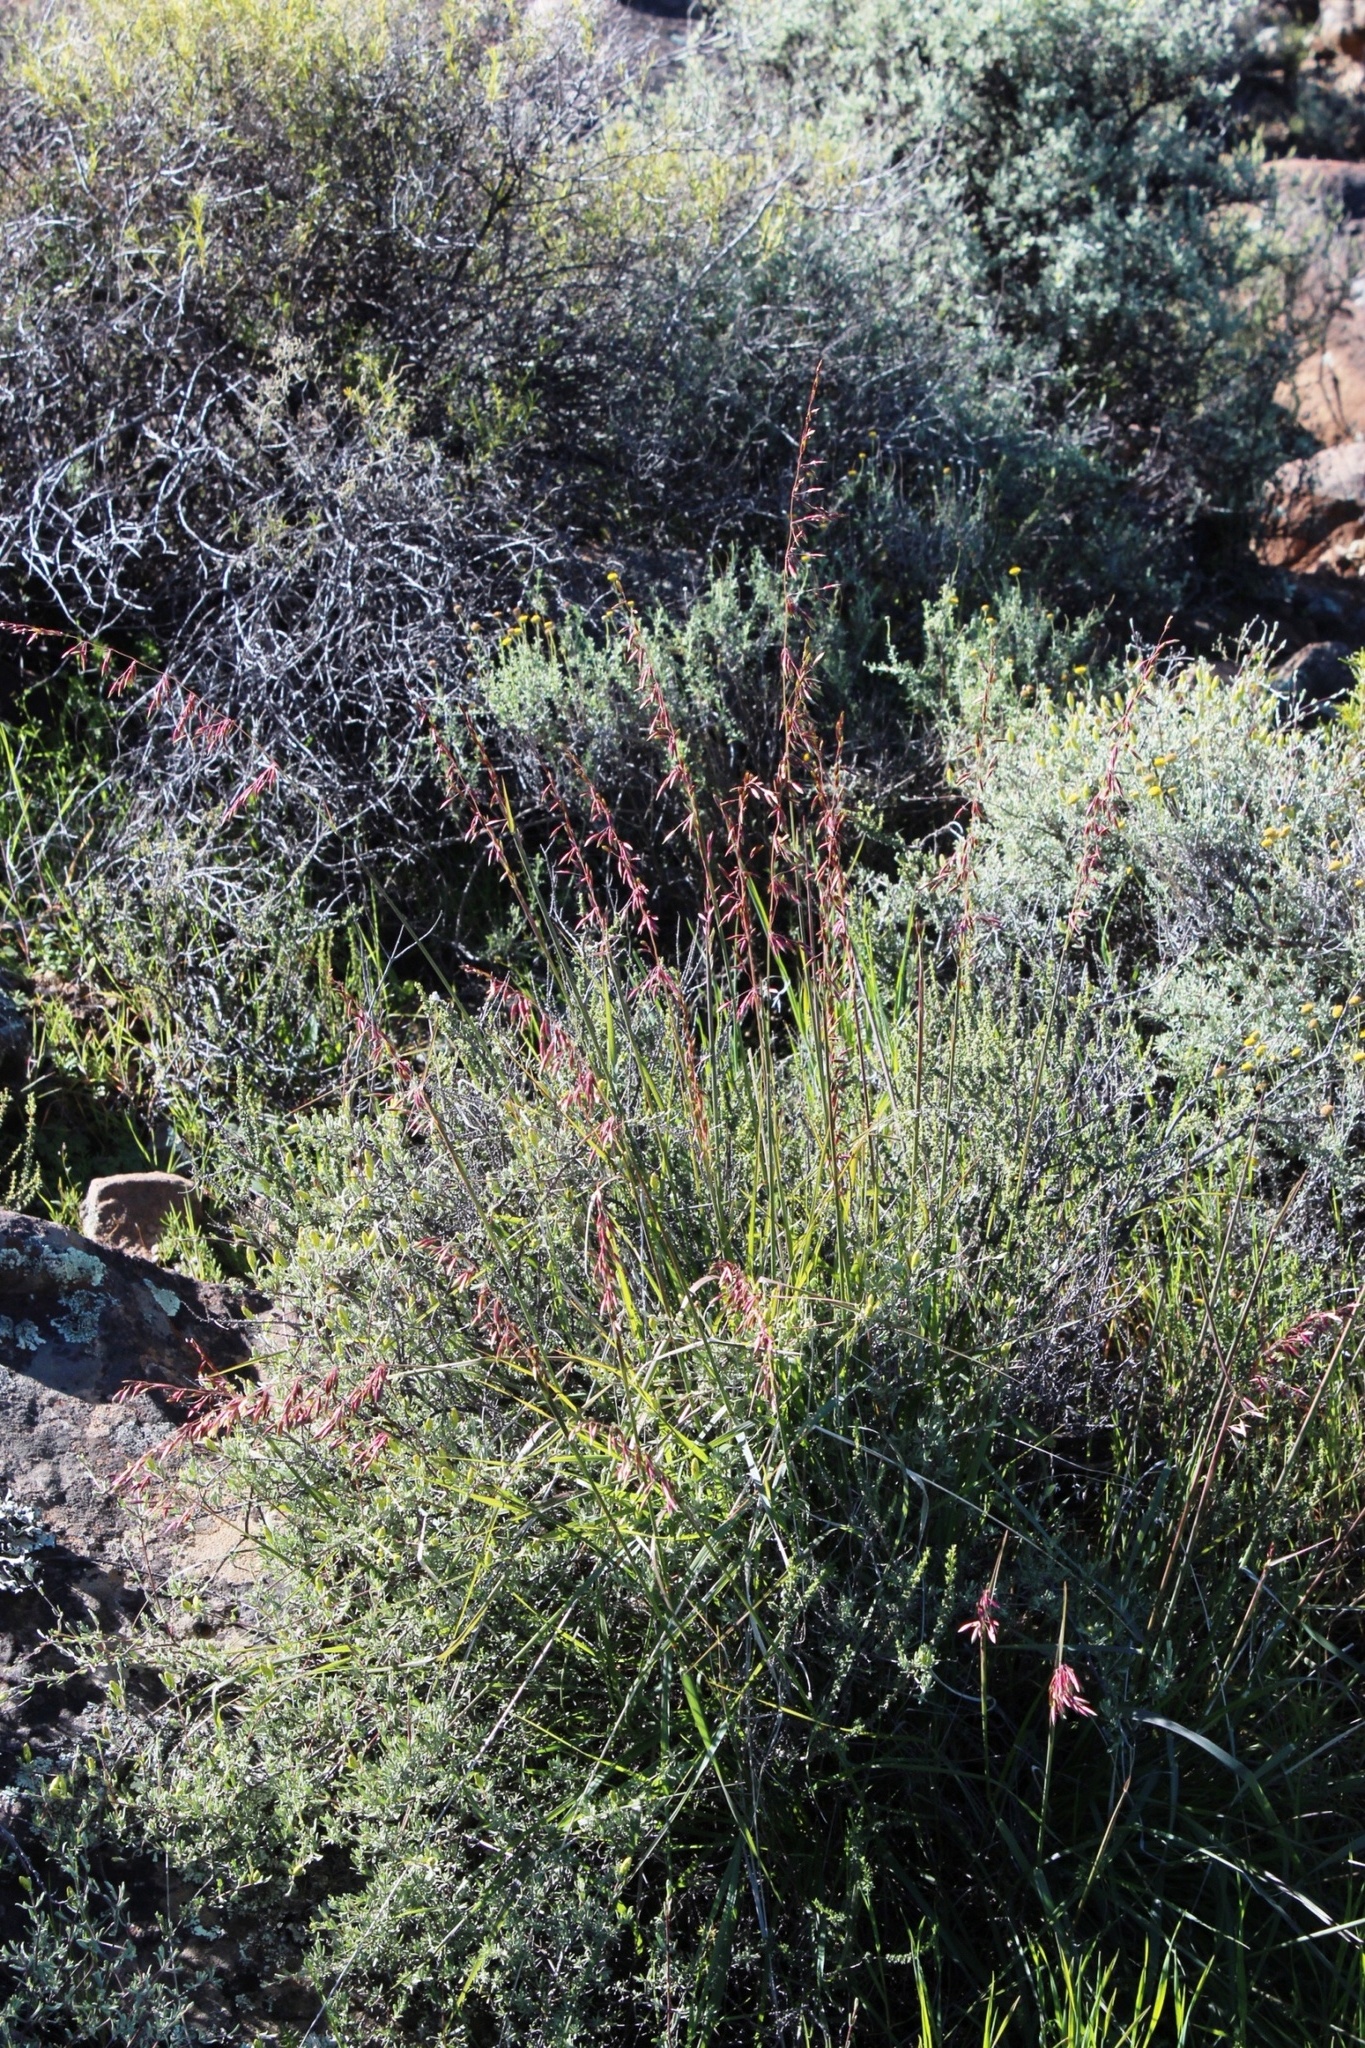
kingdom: Plantae
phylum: Tracheophyta
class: Liliopsida
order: Poales
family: Poaceae
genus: Ehrharta
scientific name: Ehrharta calycina
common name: Perennial veldtgrass
